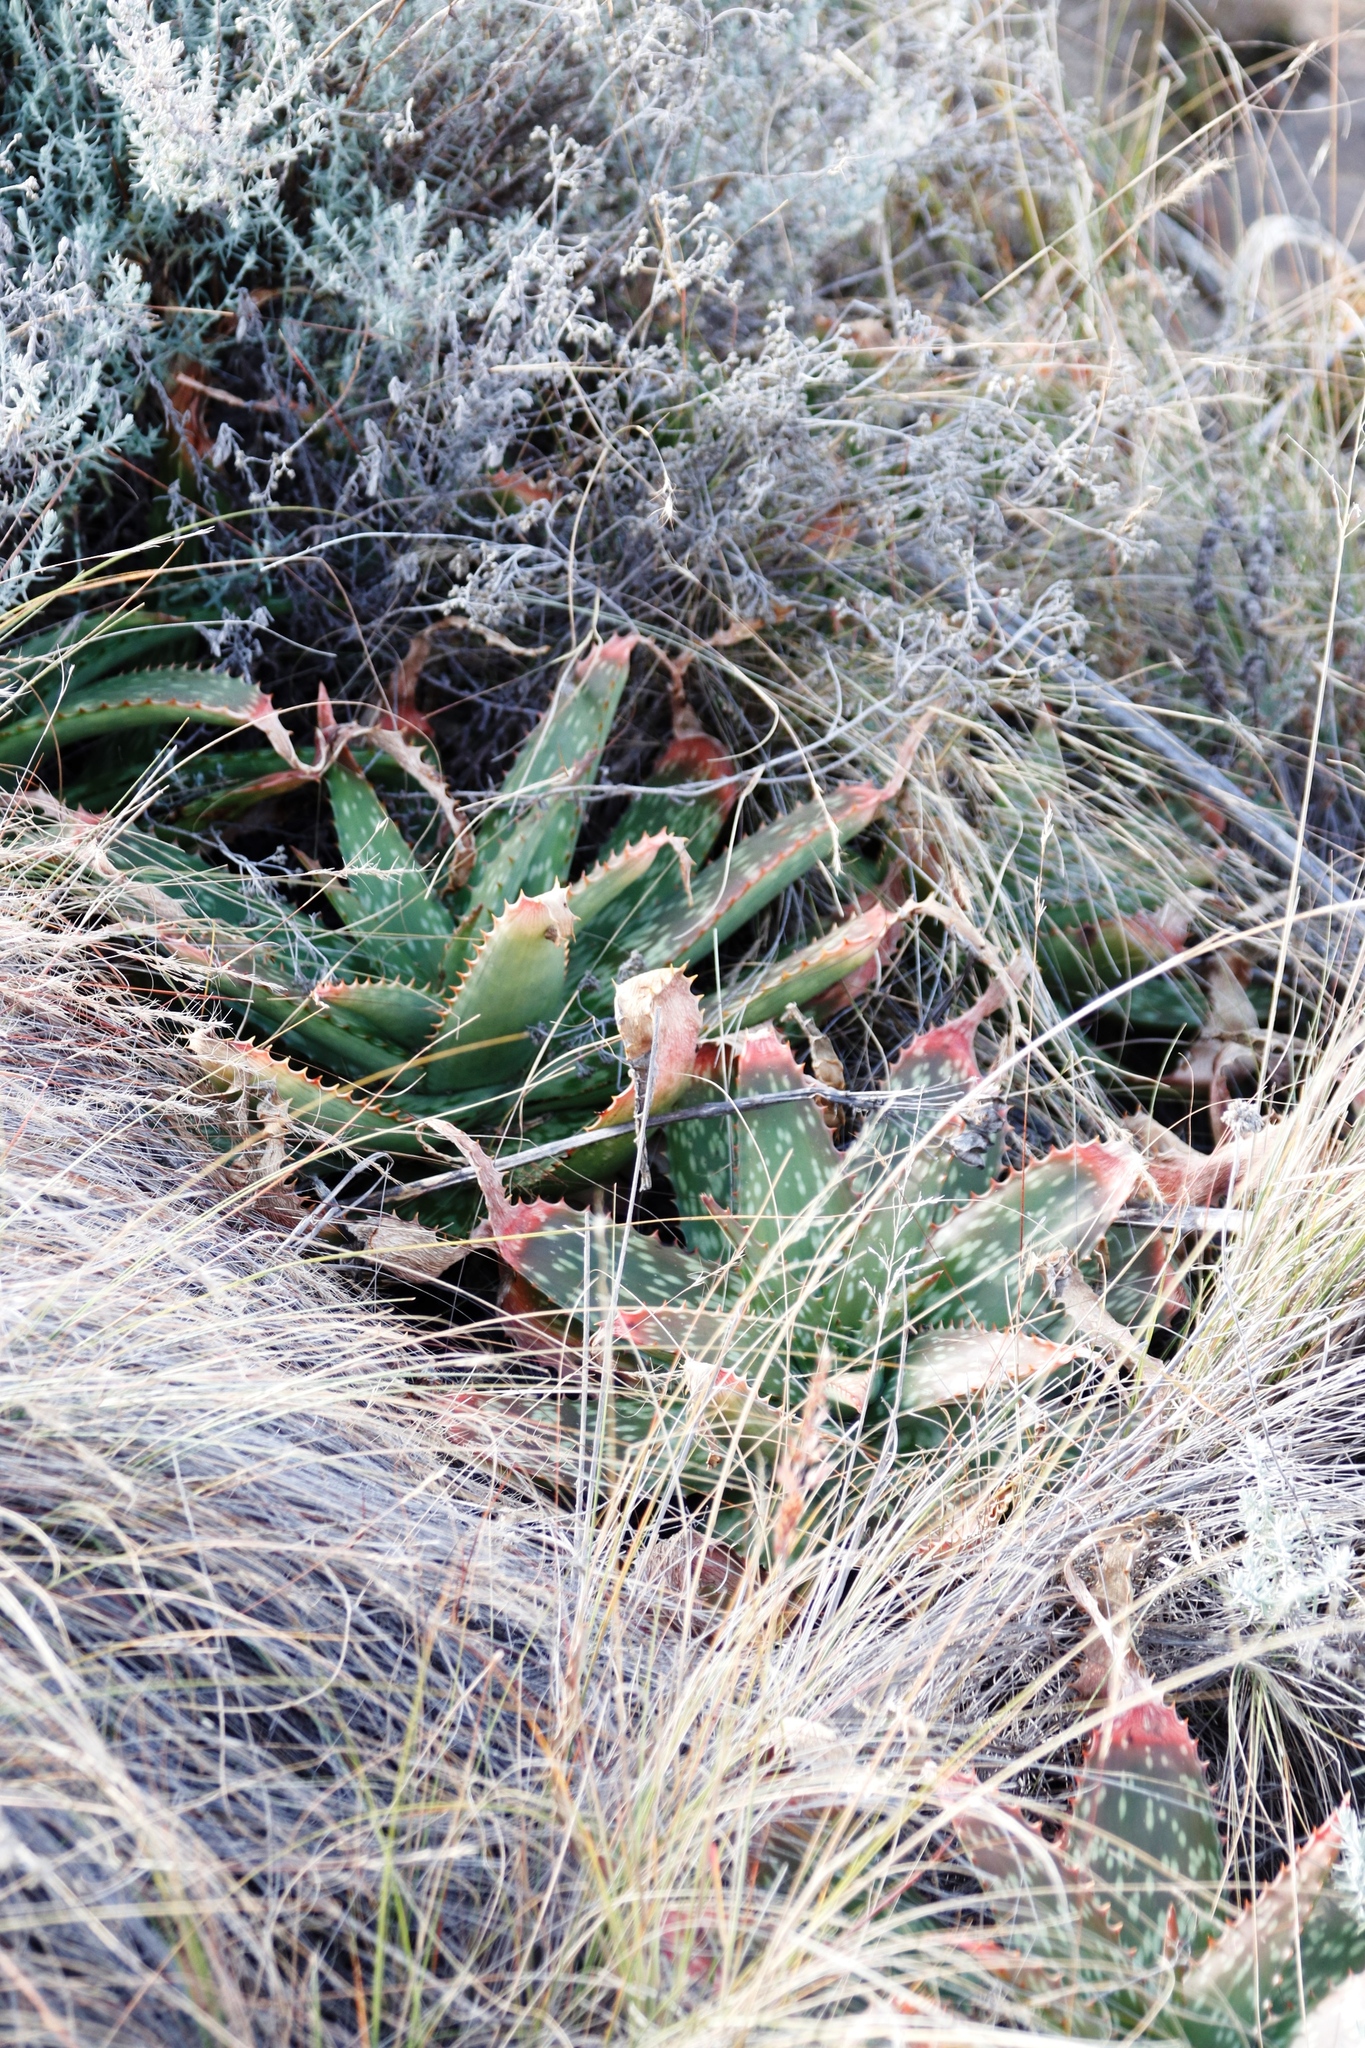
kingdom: Plantae
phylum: Tracheophyta
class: Liliopsida
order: Asparagales
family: Asphodelaceae
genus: Aloe
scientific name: Aloe maculata
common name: Broadleaf aloe
